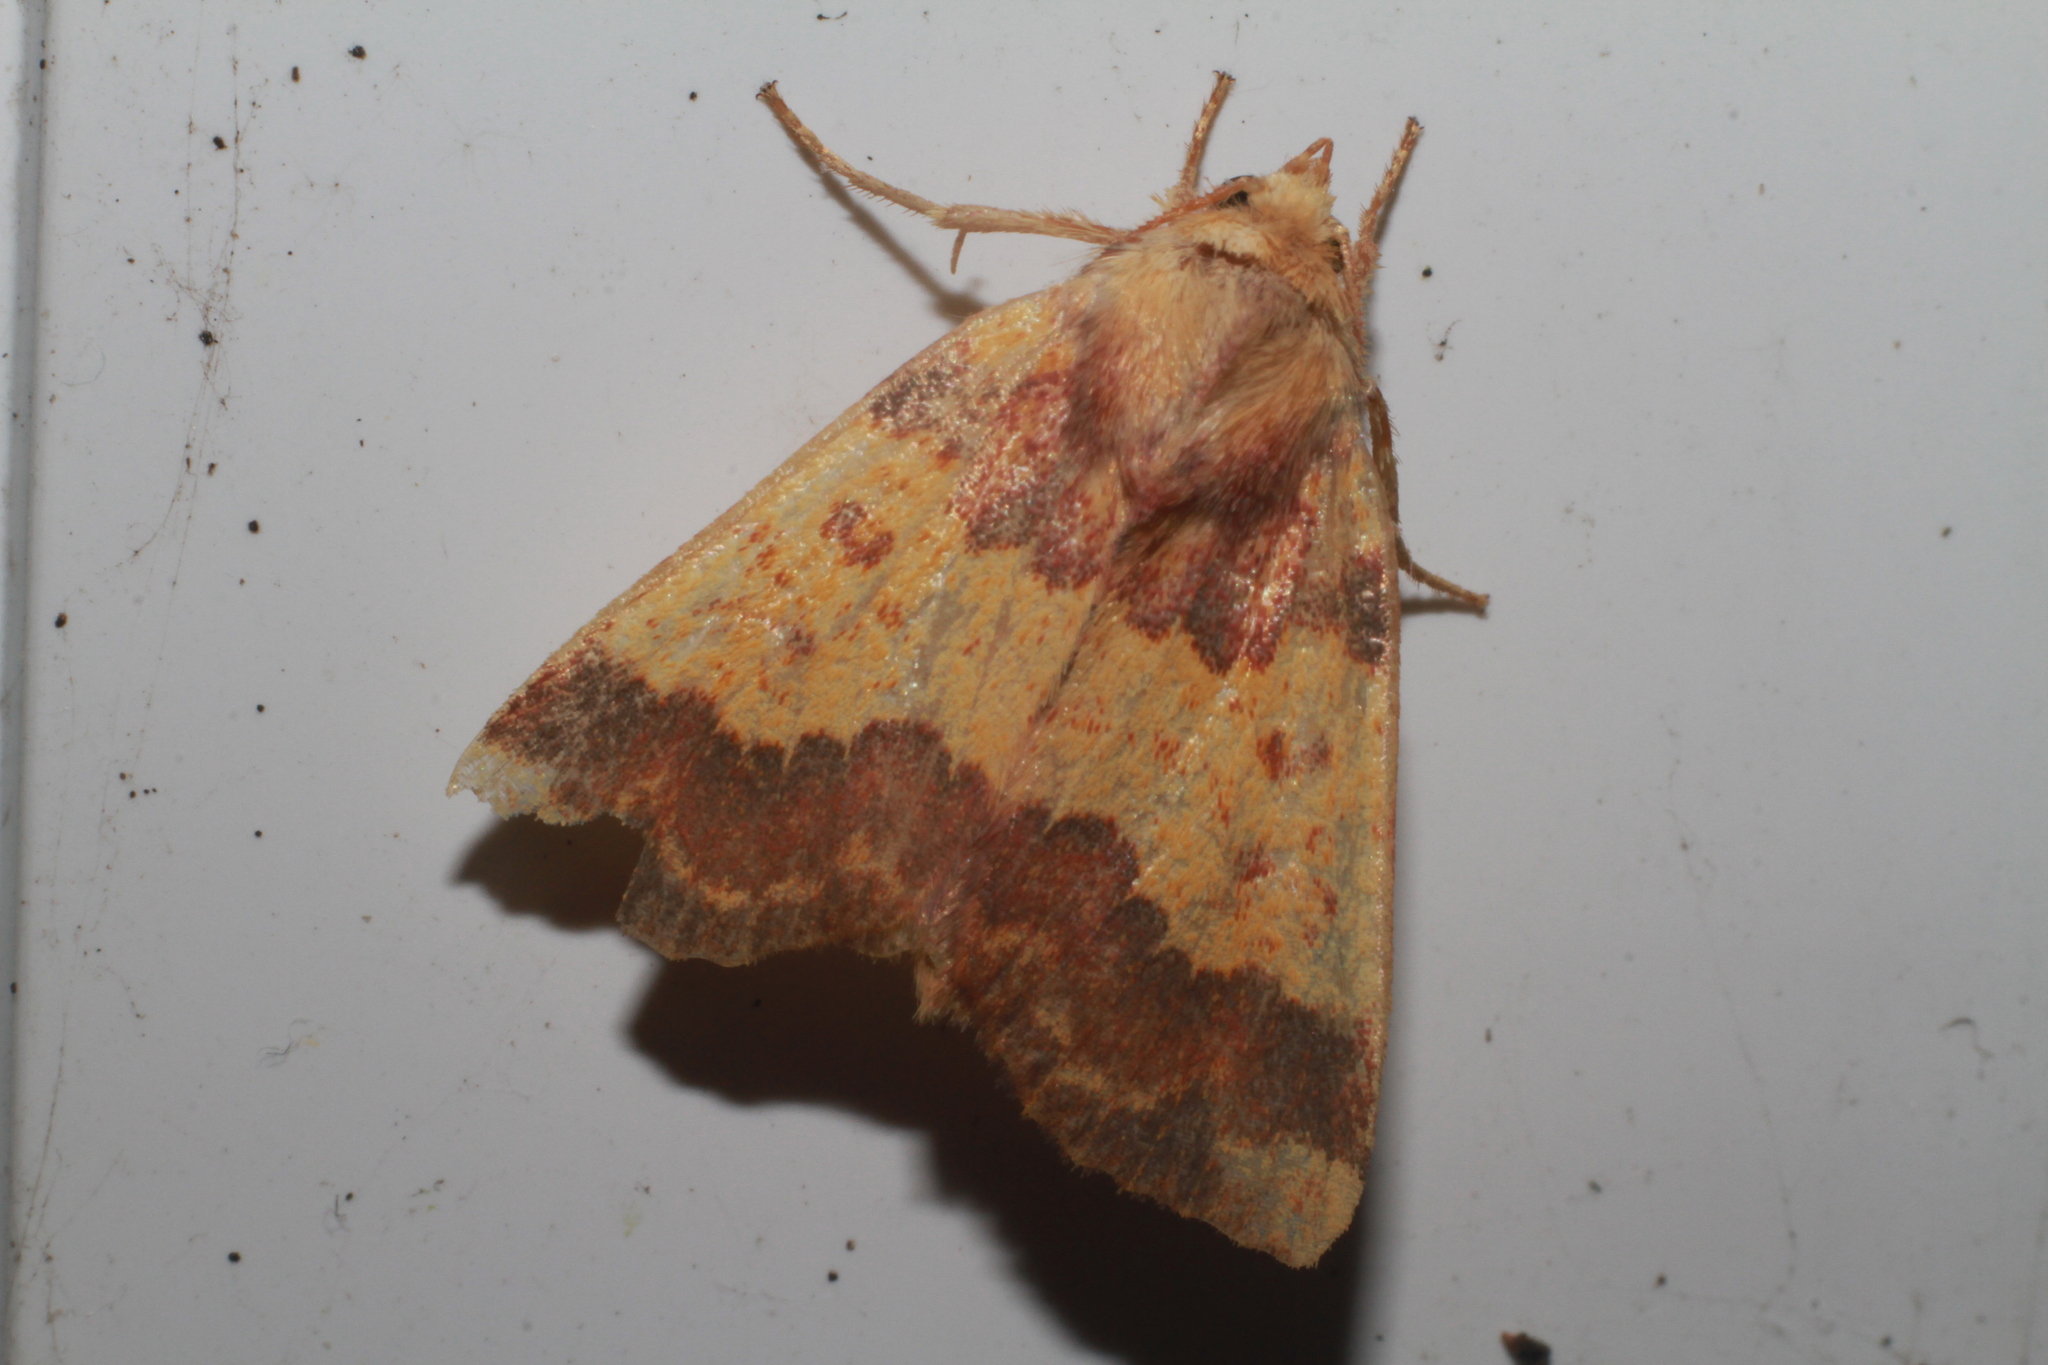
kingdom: Animalia
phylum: Arthropoda
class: Insecta
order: Lepidoptera
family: Noctuidae
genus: Tiliacea
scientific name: Tiliacea aurago
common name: Barred sallow
